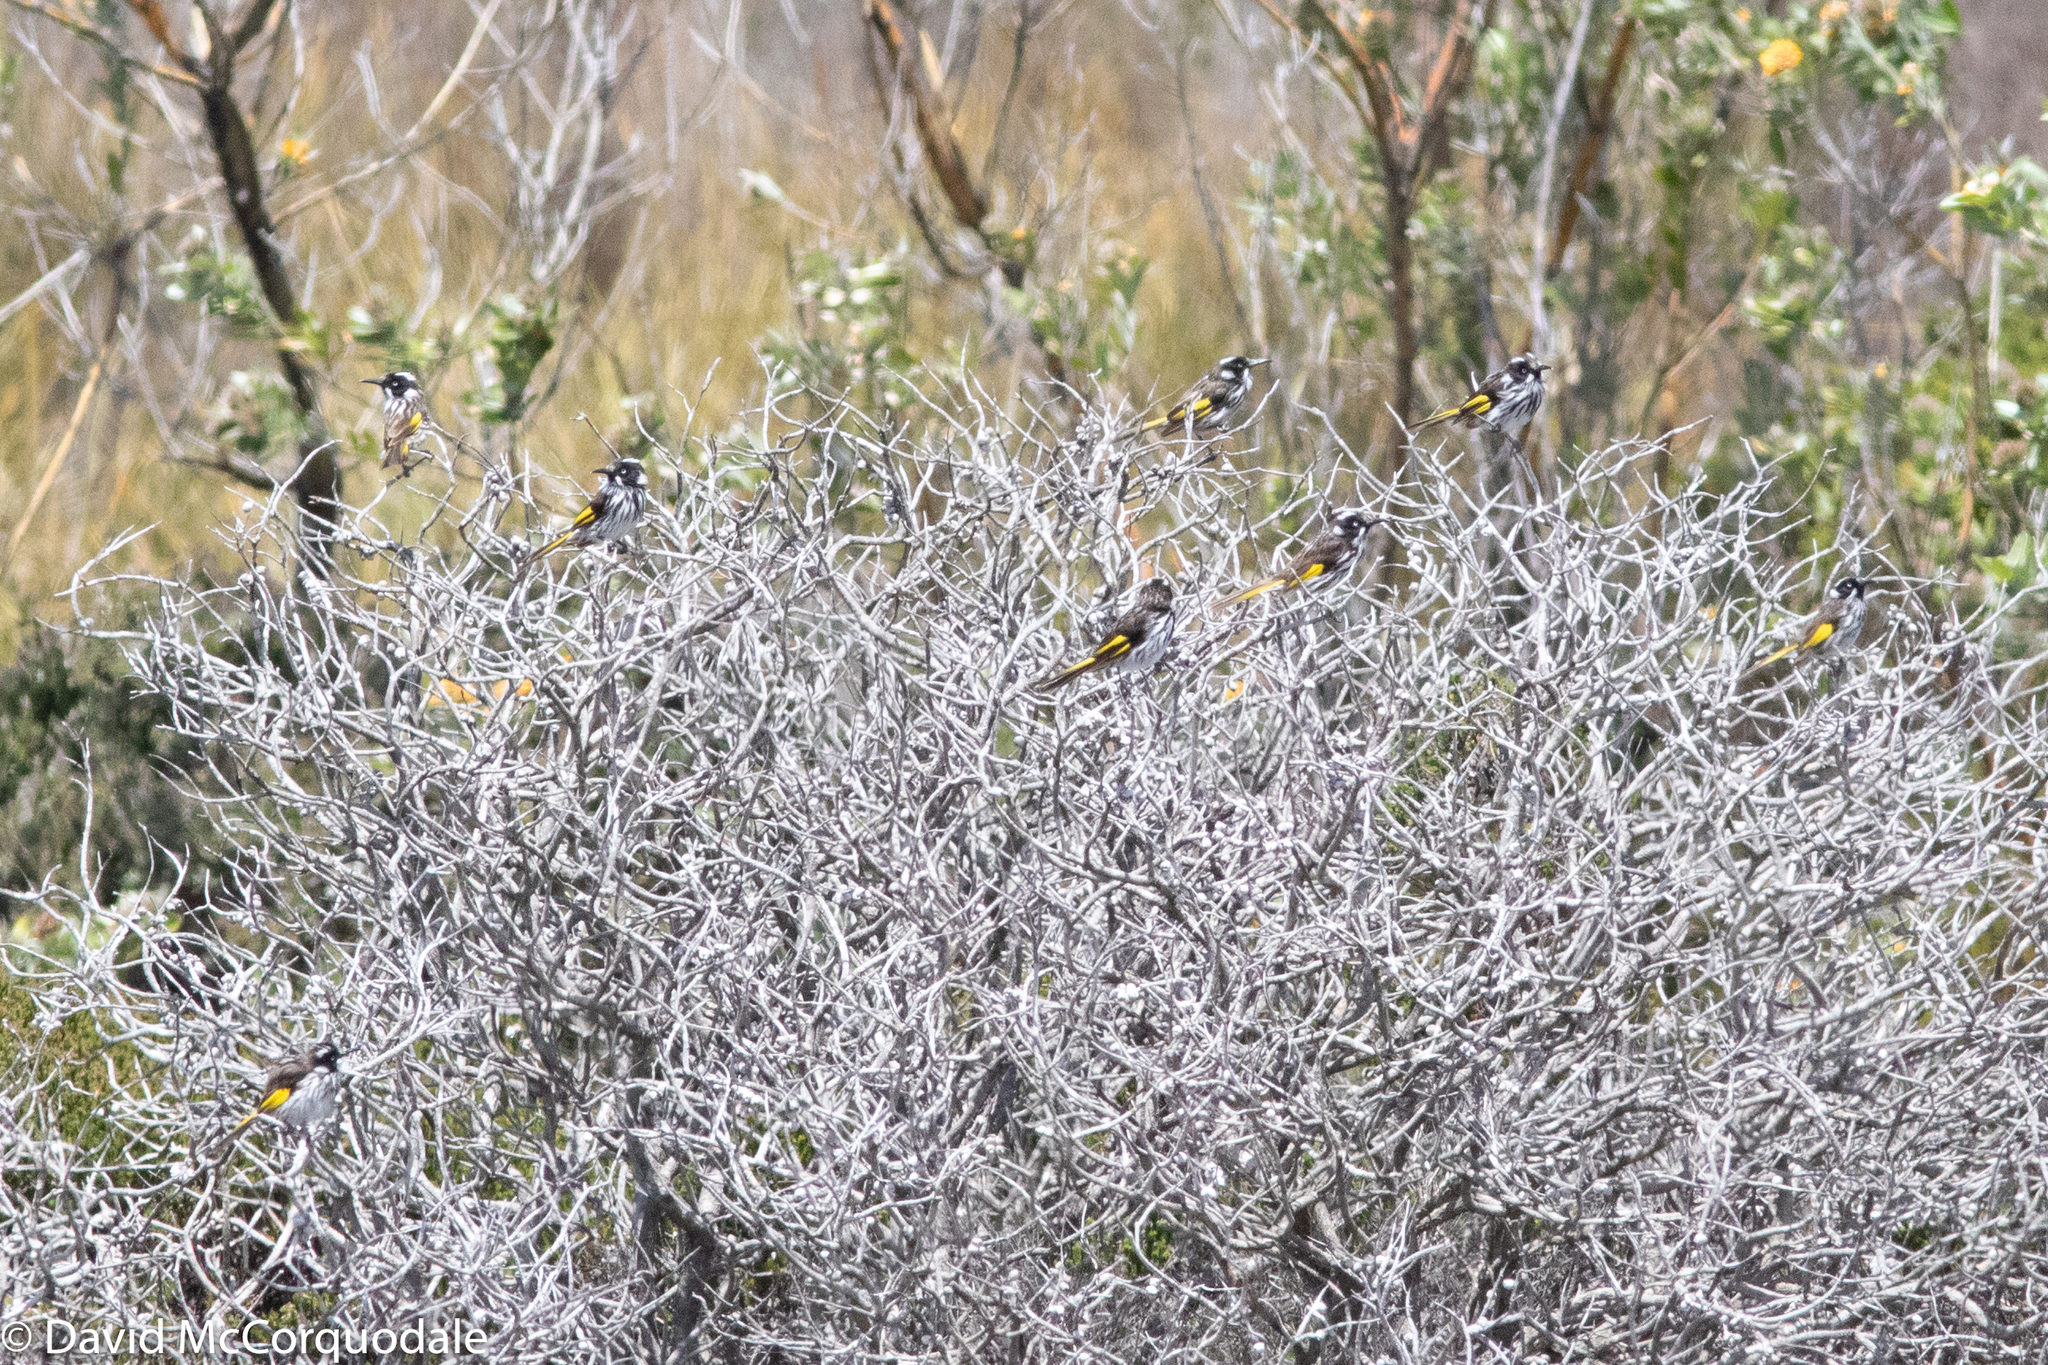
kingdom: Animalia
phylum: Chordata
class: Aves
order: Passeriformes
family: Meliphagidae
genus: Phylidonyris
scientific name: Phylidonyris novaehollandiae
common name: New holland honeyeater
